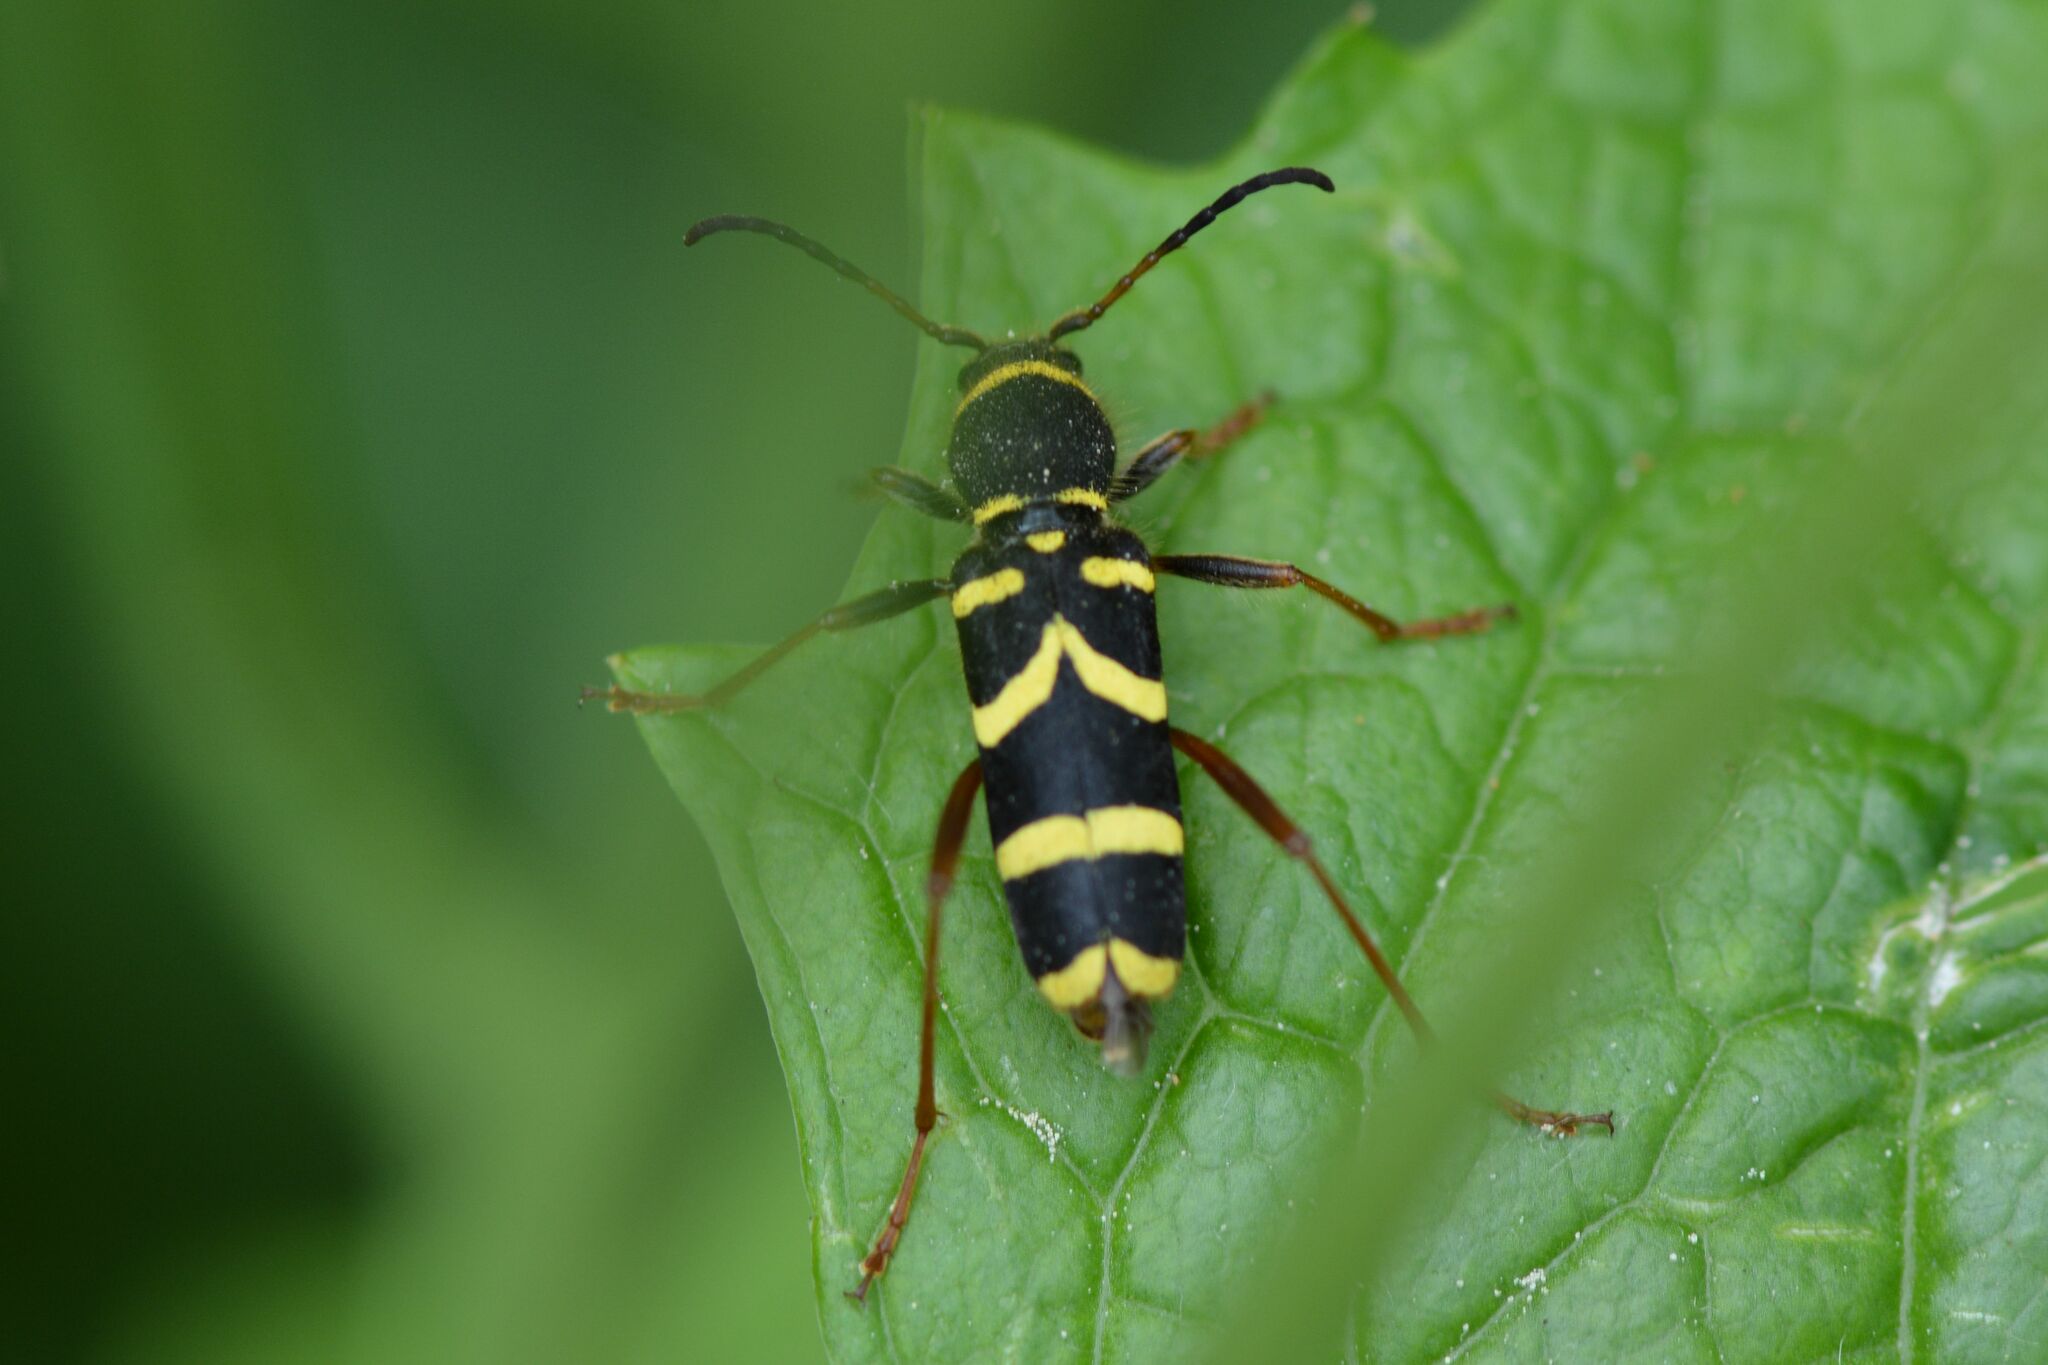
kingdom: Animalia
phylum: Arthropoda
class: Insecta
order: Coleoptera
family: Cerambycidae
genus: Clytus
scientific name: Clytus arietis
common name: Wasp beetle
